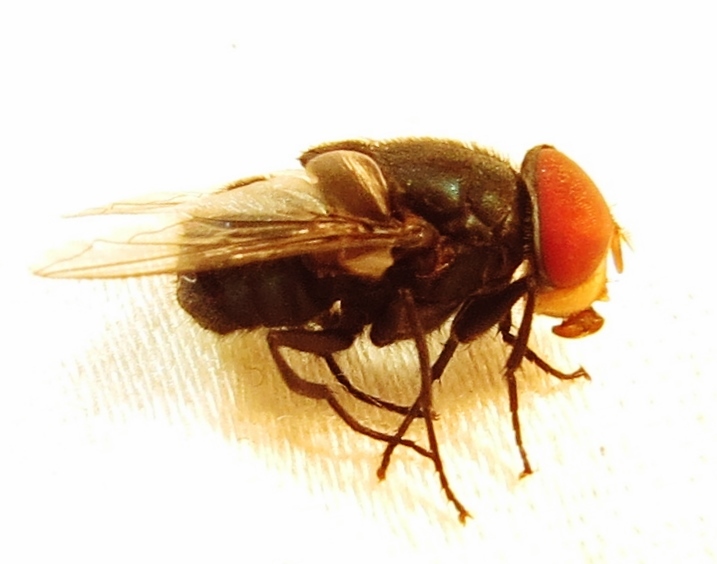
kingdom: Animalia
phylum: Arthropoda
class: Insecta
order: Diptera
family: Calliphoridae
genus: Chrysomya
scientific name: Chrysomya megacephala
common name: Blow fly
